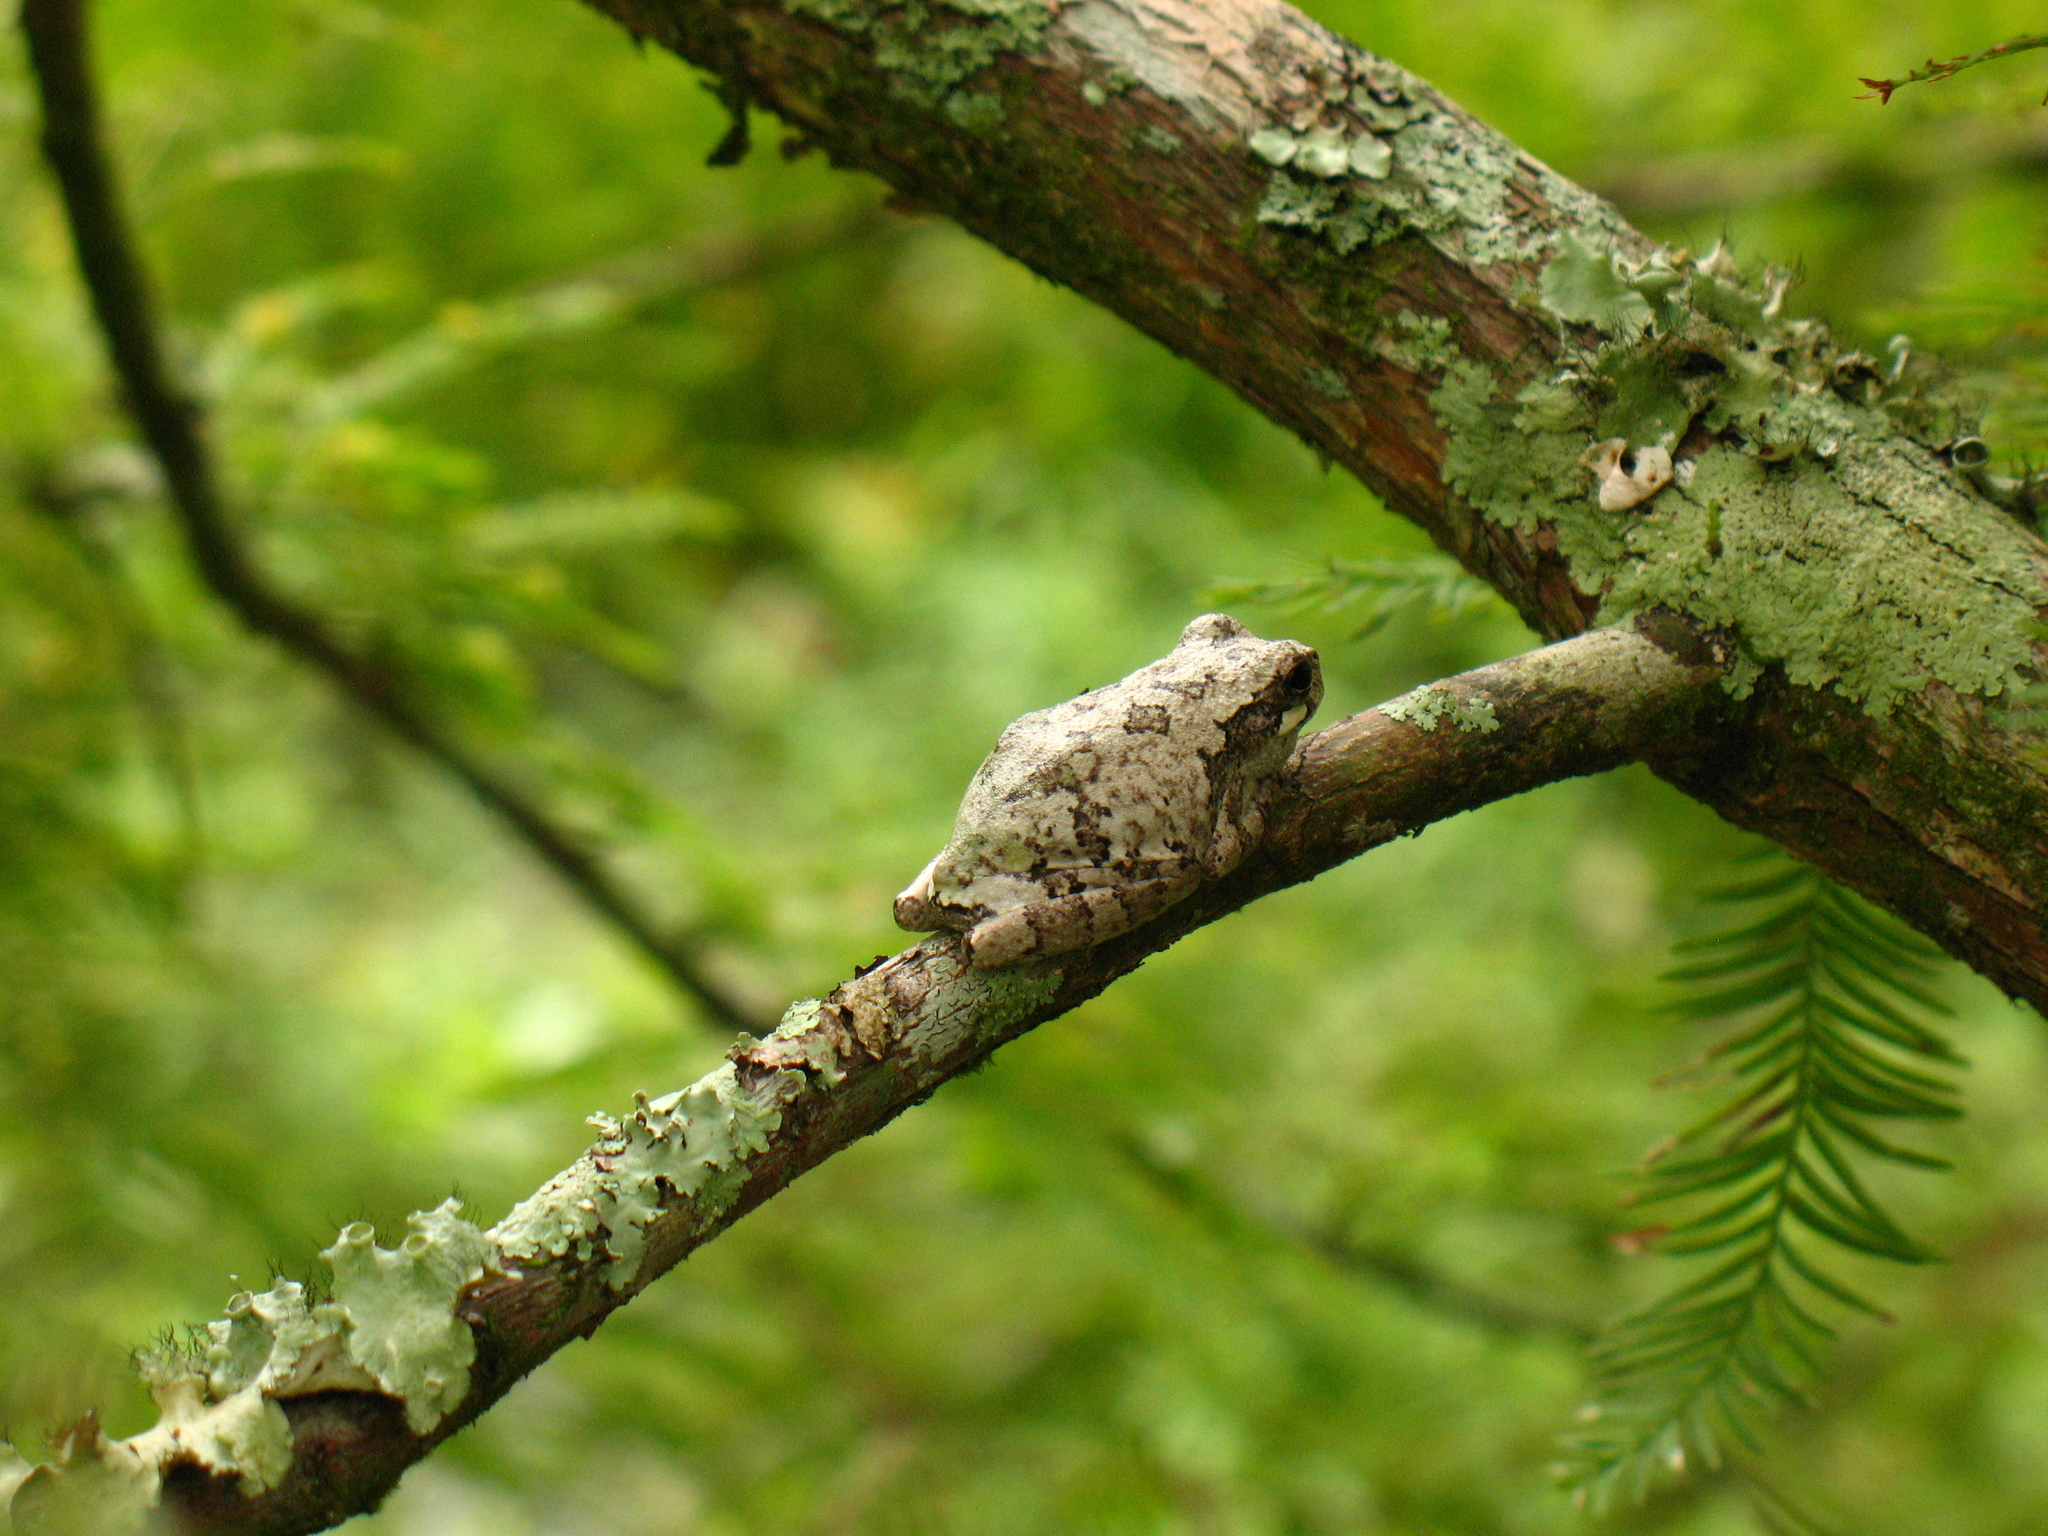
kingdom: Animalia
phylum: Chordata
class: Amphibia
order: Anura
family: Hylidae
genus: Dryophytes
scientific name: Dryophytes chrysoscelis
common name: Cope's gray treefrog
